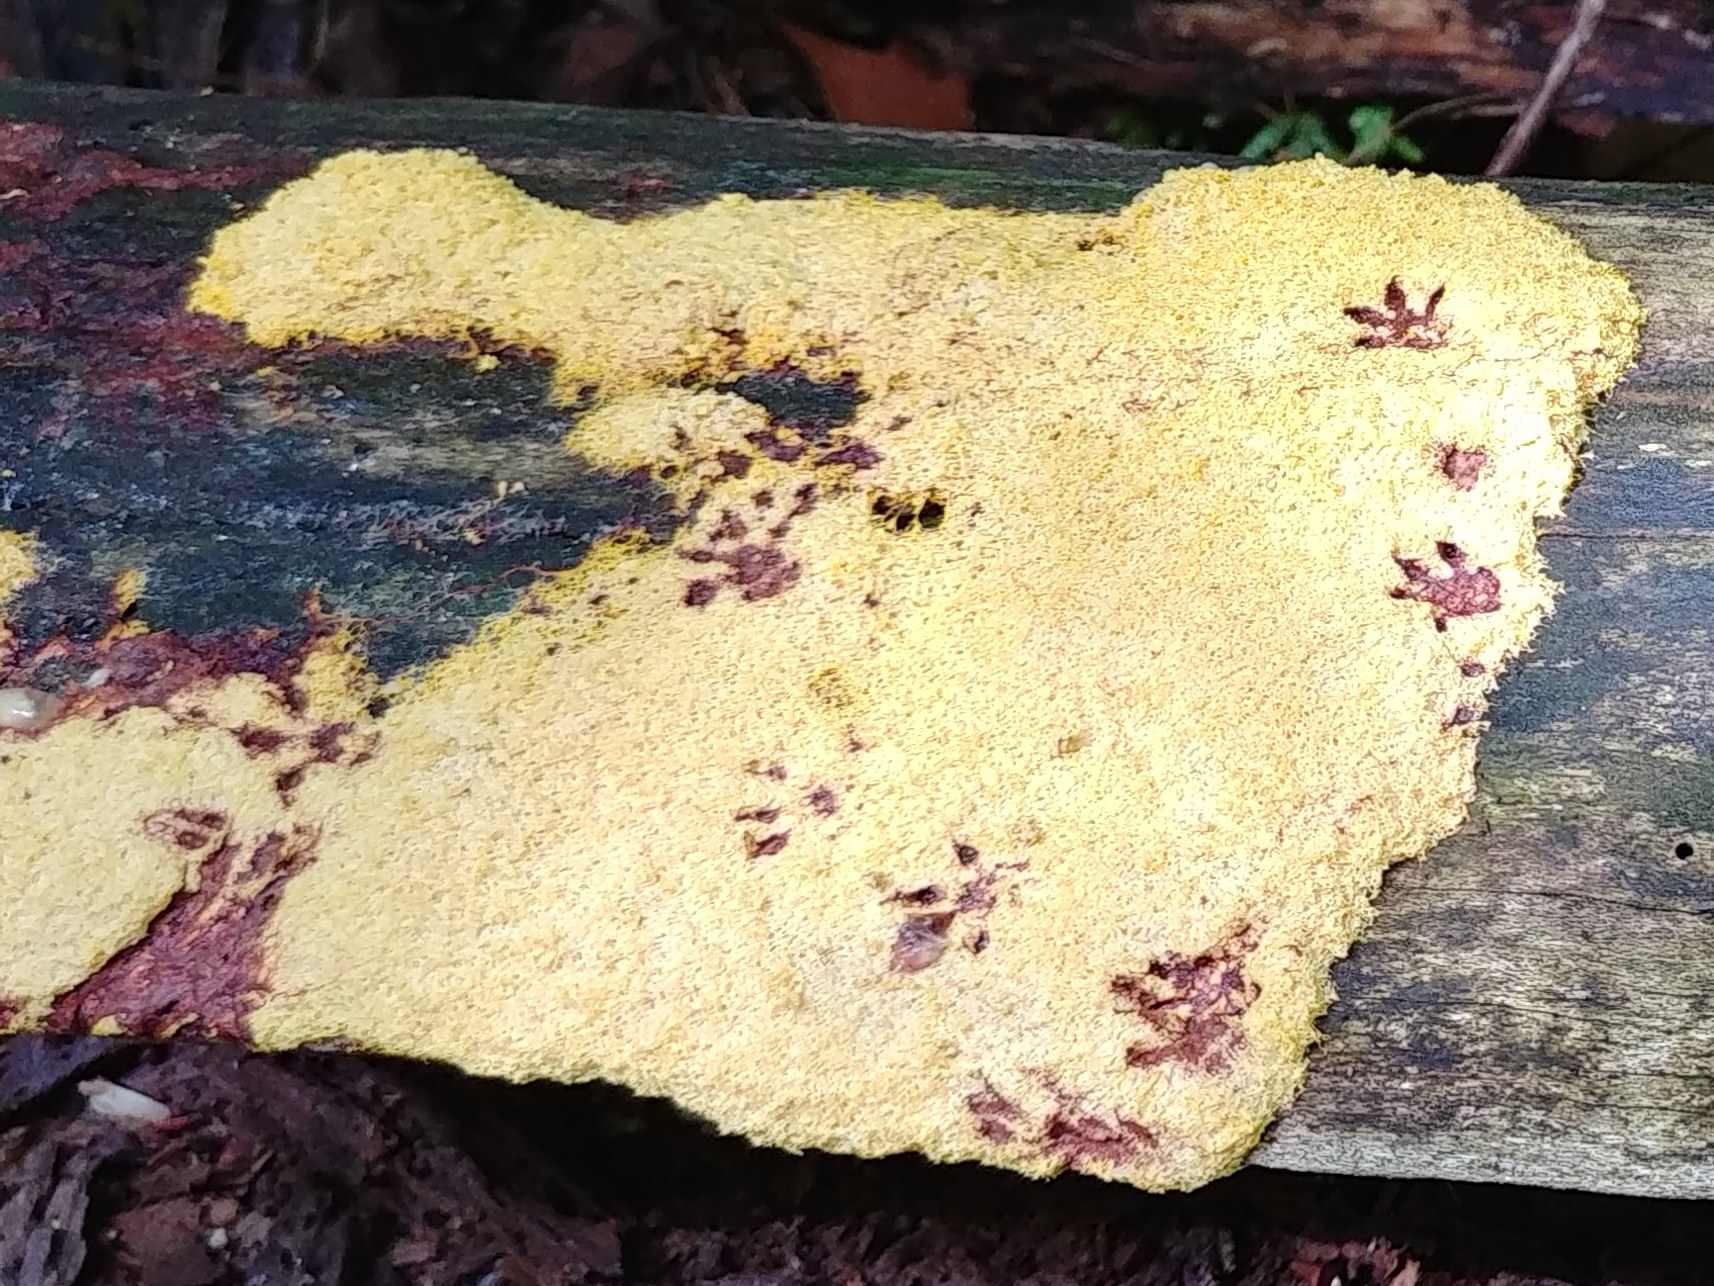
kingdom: Protozoa
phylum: Mycetozoa
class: Myxomycetes
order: Physarales
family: Physaraceae
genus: Fuligo
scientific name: Fuligo septica
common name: Dog vomit slime mold
